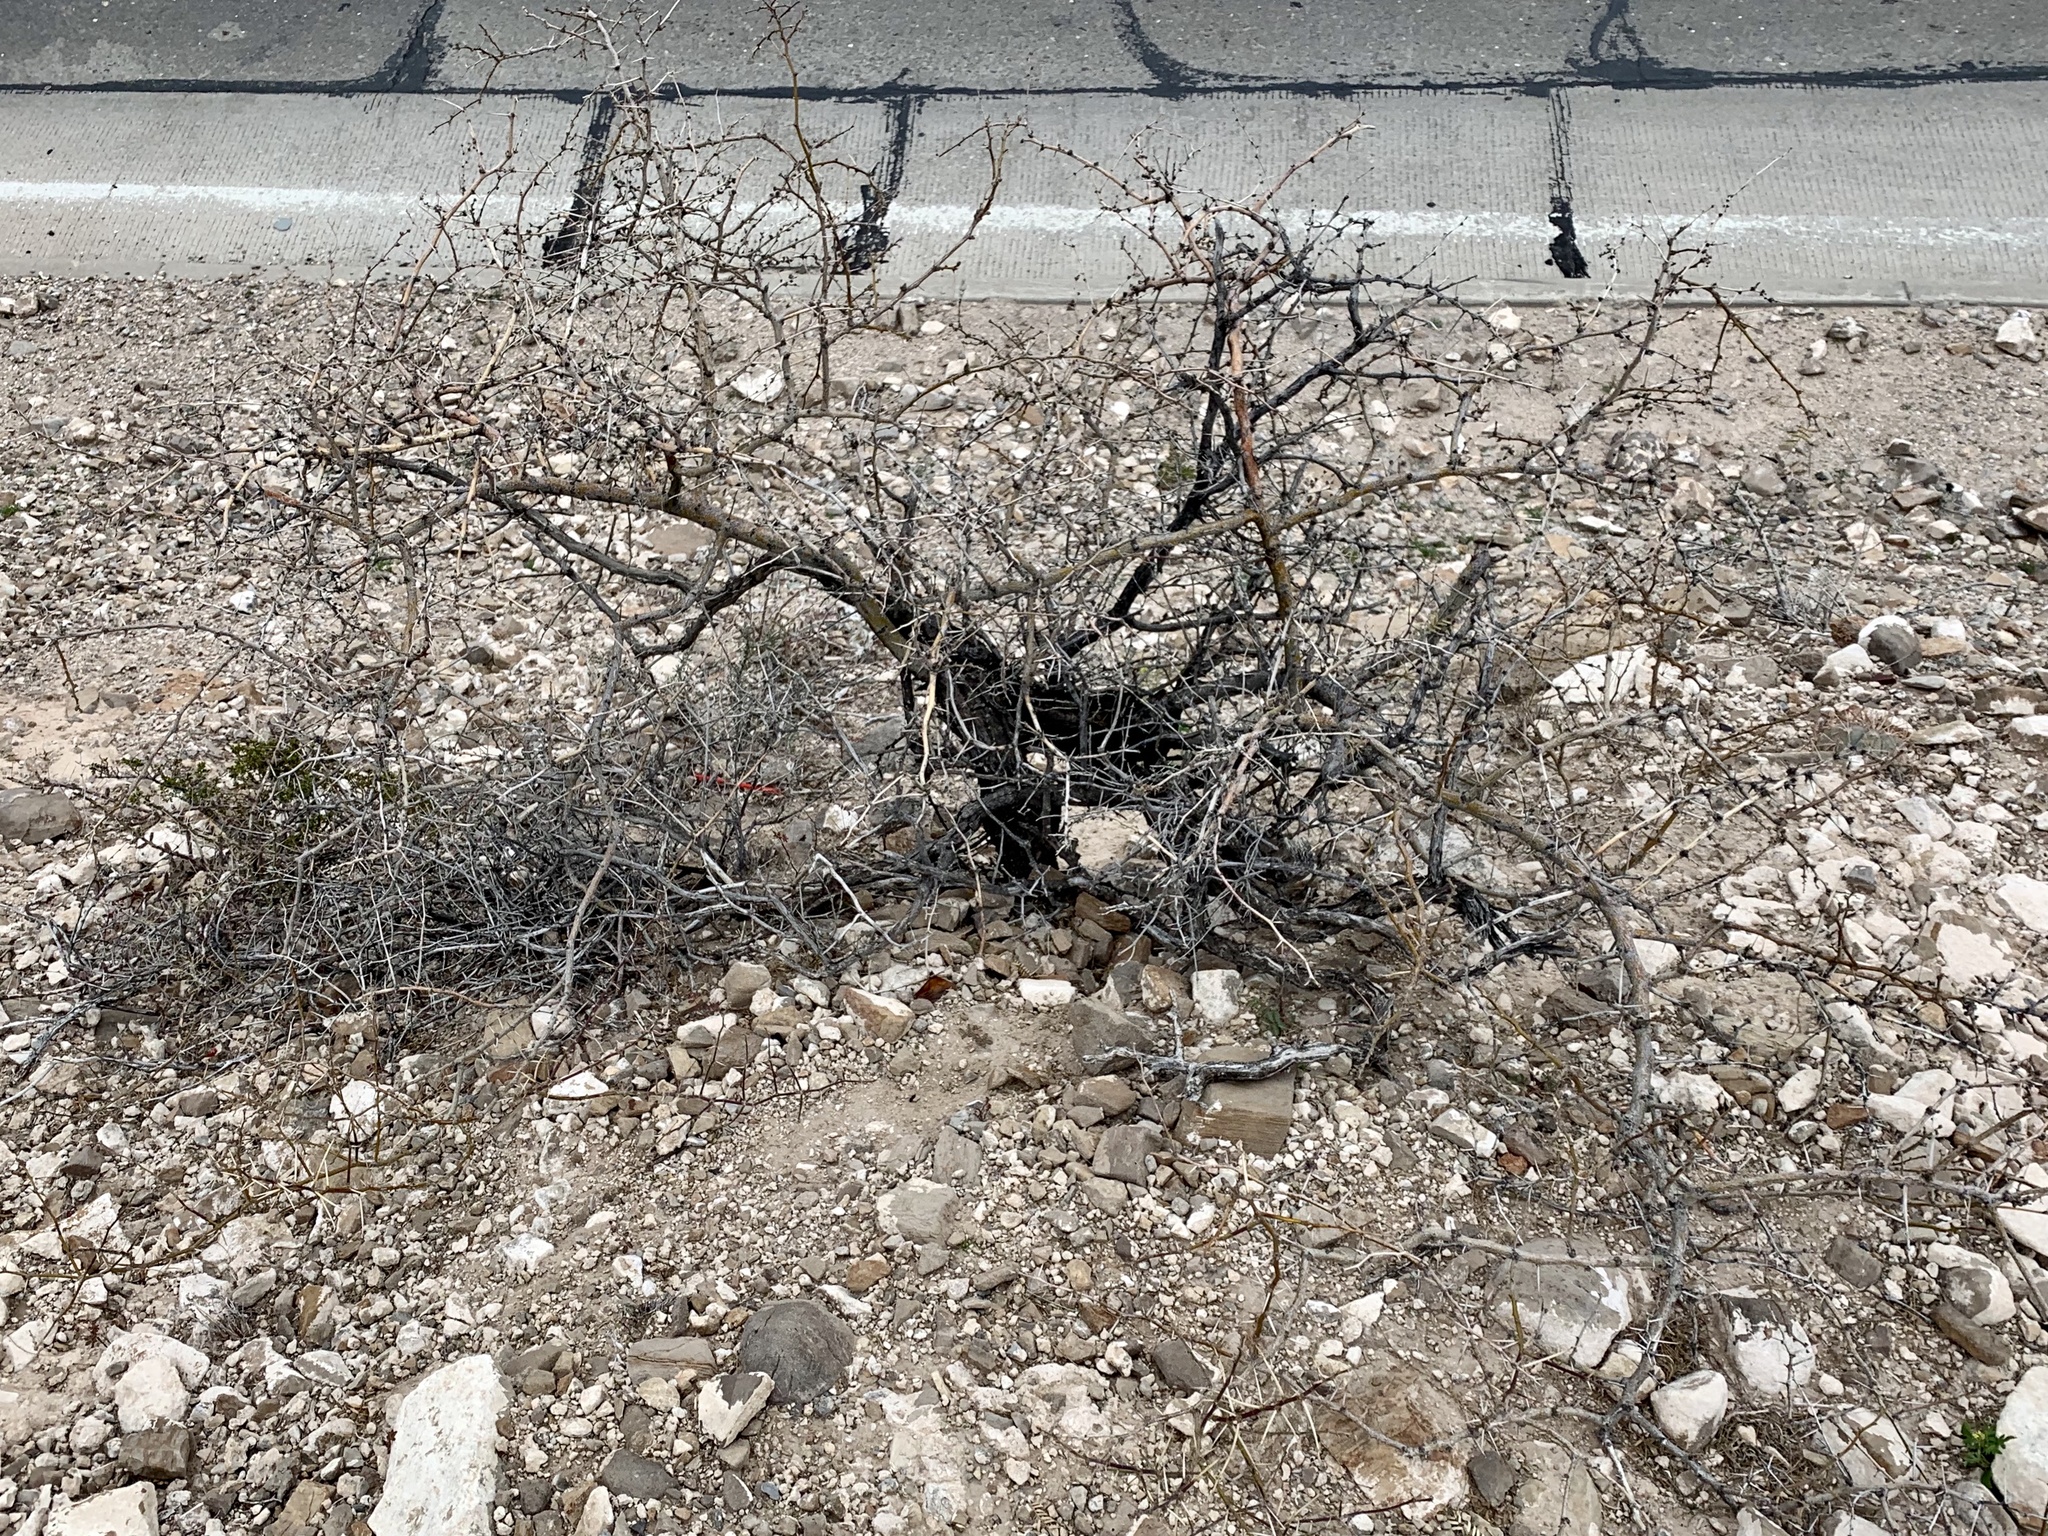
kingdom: Plantae
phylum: Tracheophyta
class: Magnoliopsida
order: Fabales
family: Fabaceae
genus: Prosopis
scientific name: Prosopis glandulosa
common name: Honey mesquite
